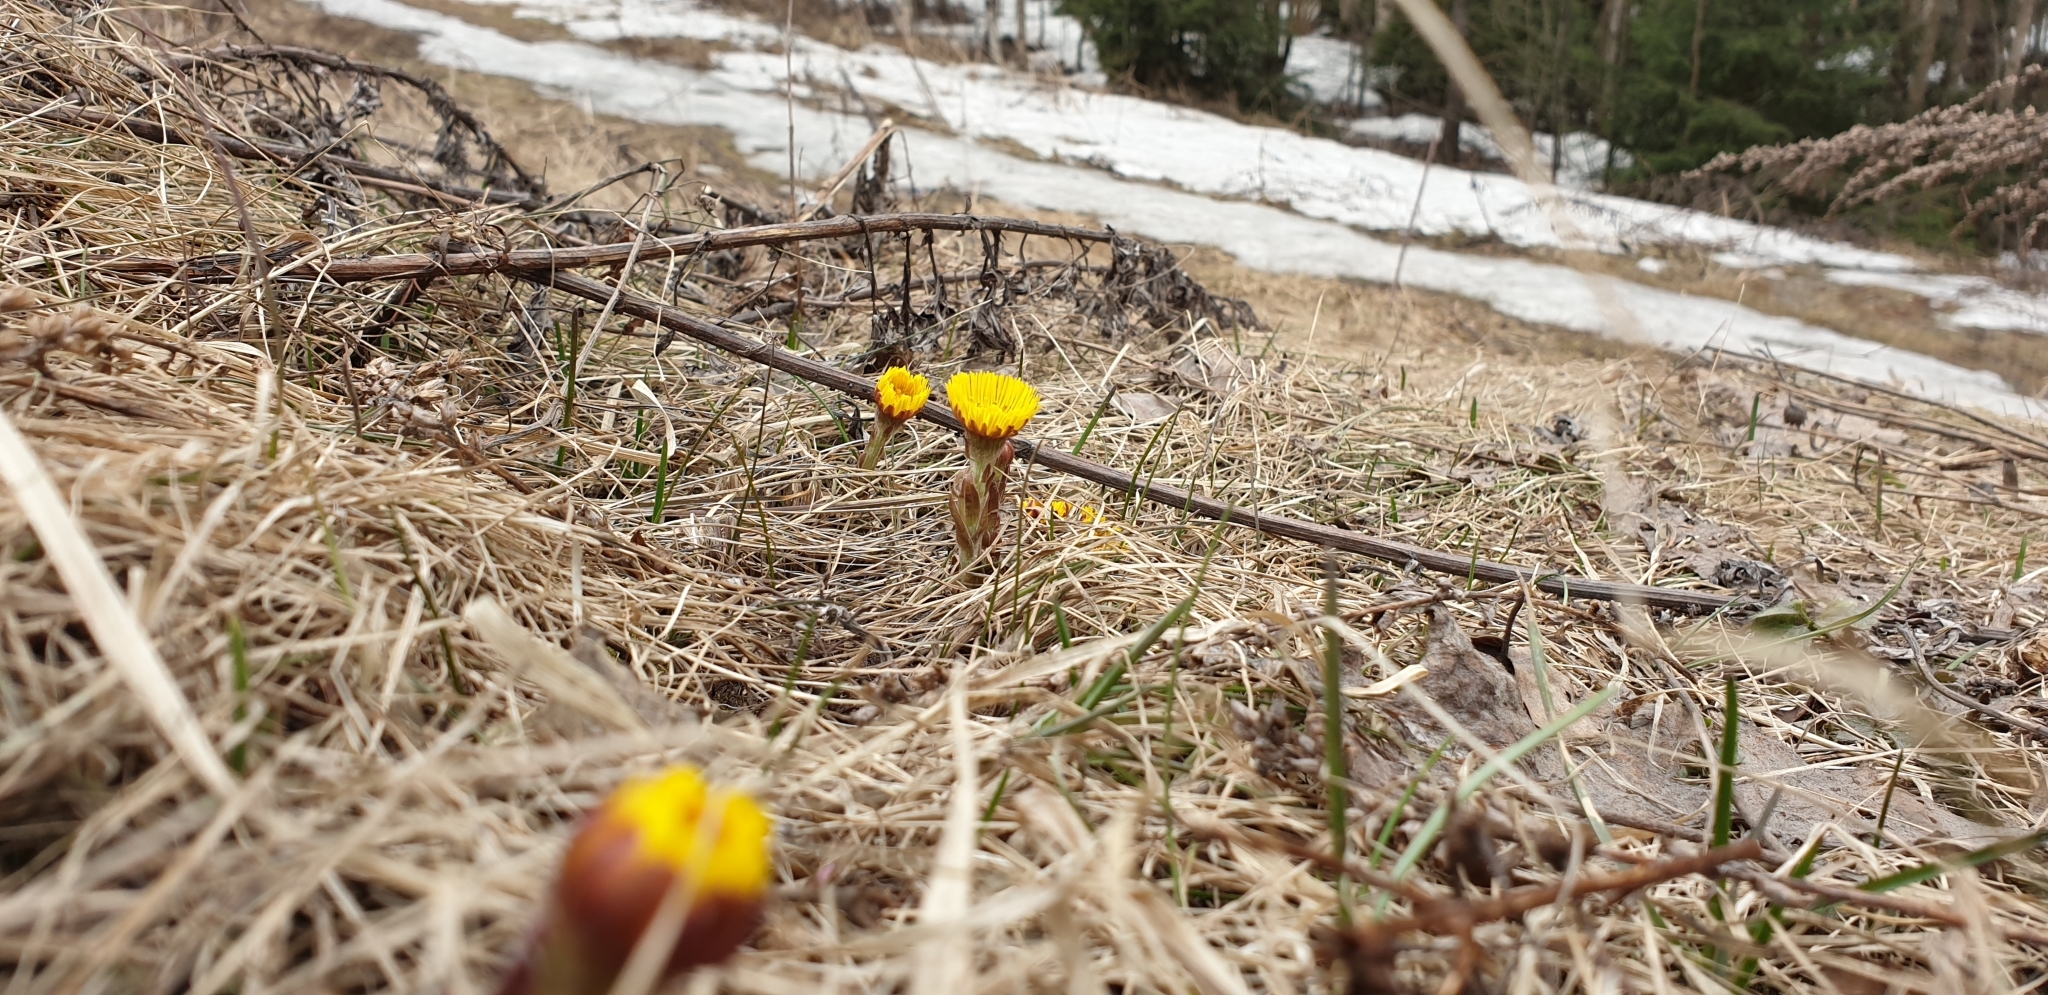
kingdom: Plantae
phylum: Tracheophyta
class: Magnoliopsida
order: Asterales
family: Asteraceae
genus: Tussilago
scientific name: Tussilago farfara
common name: Coltsfoot
